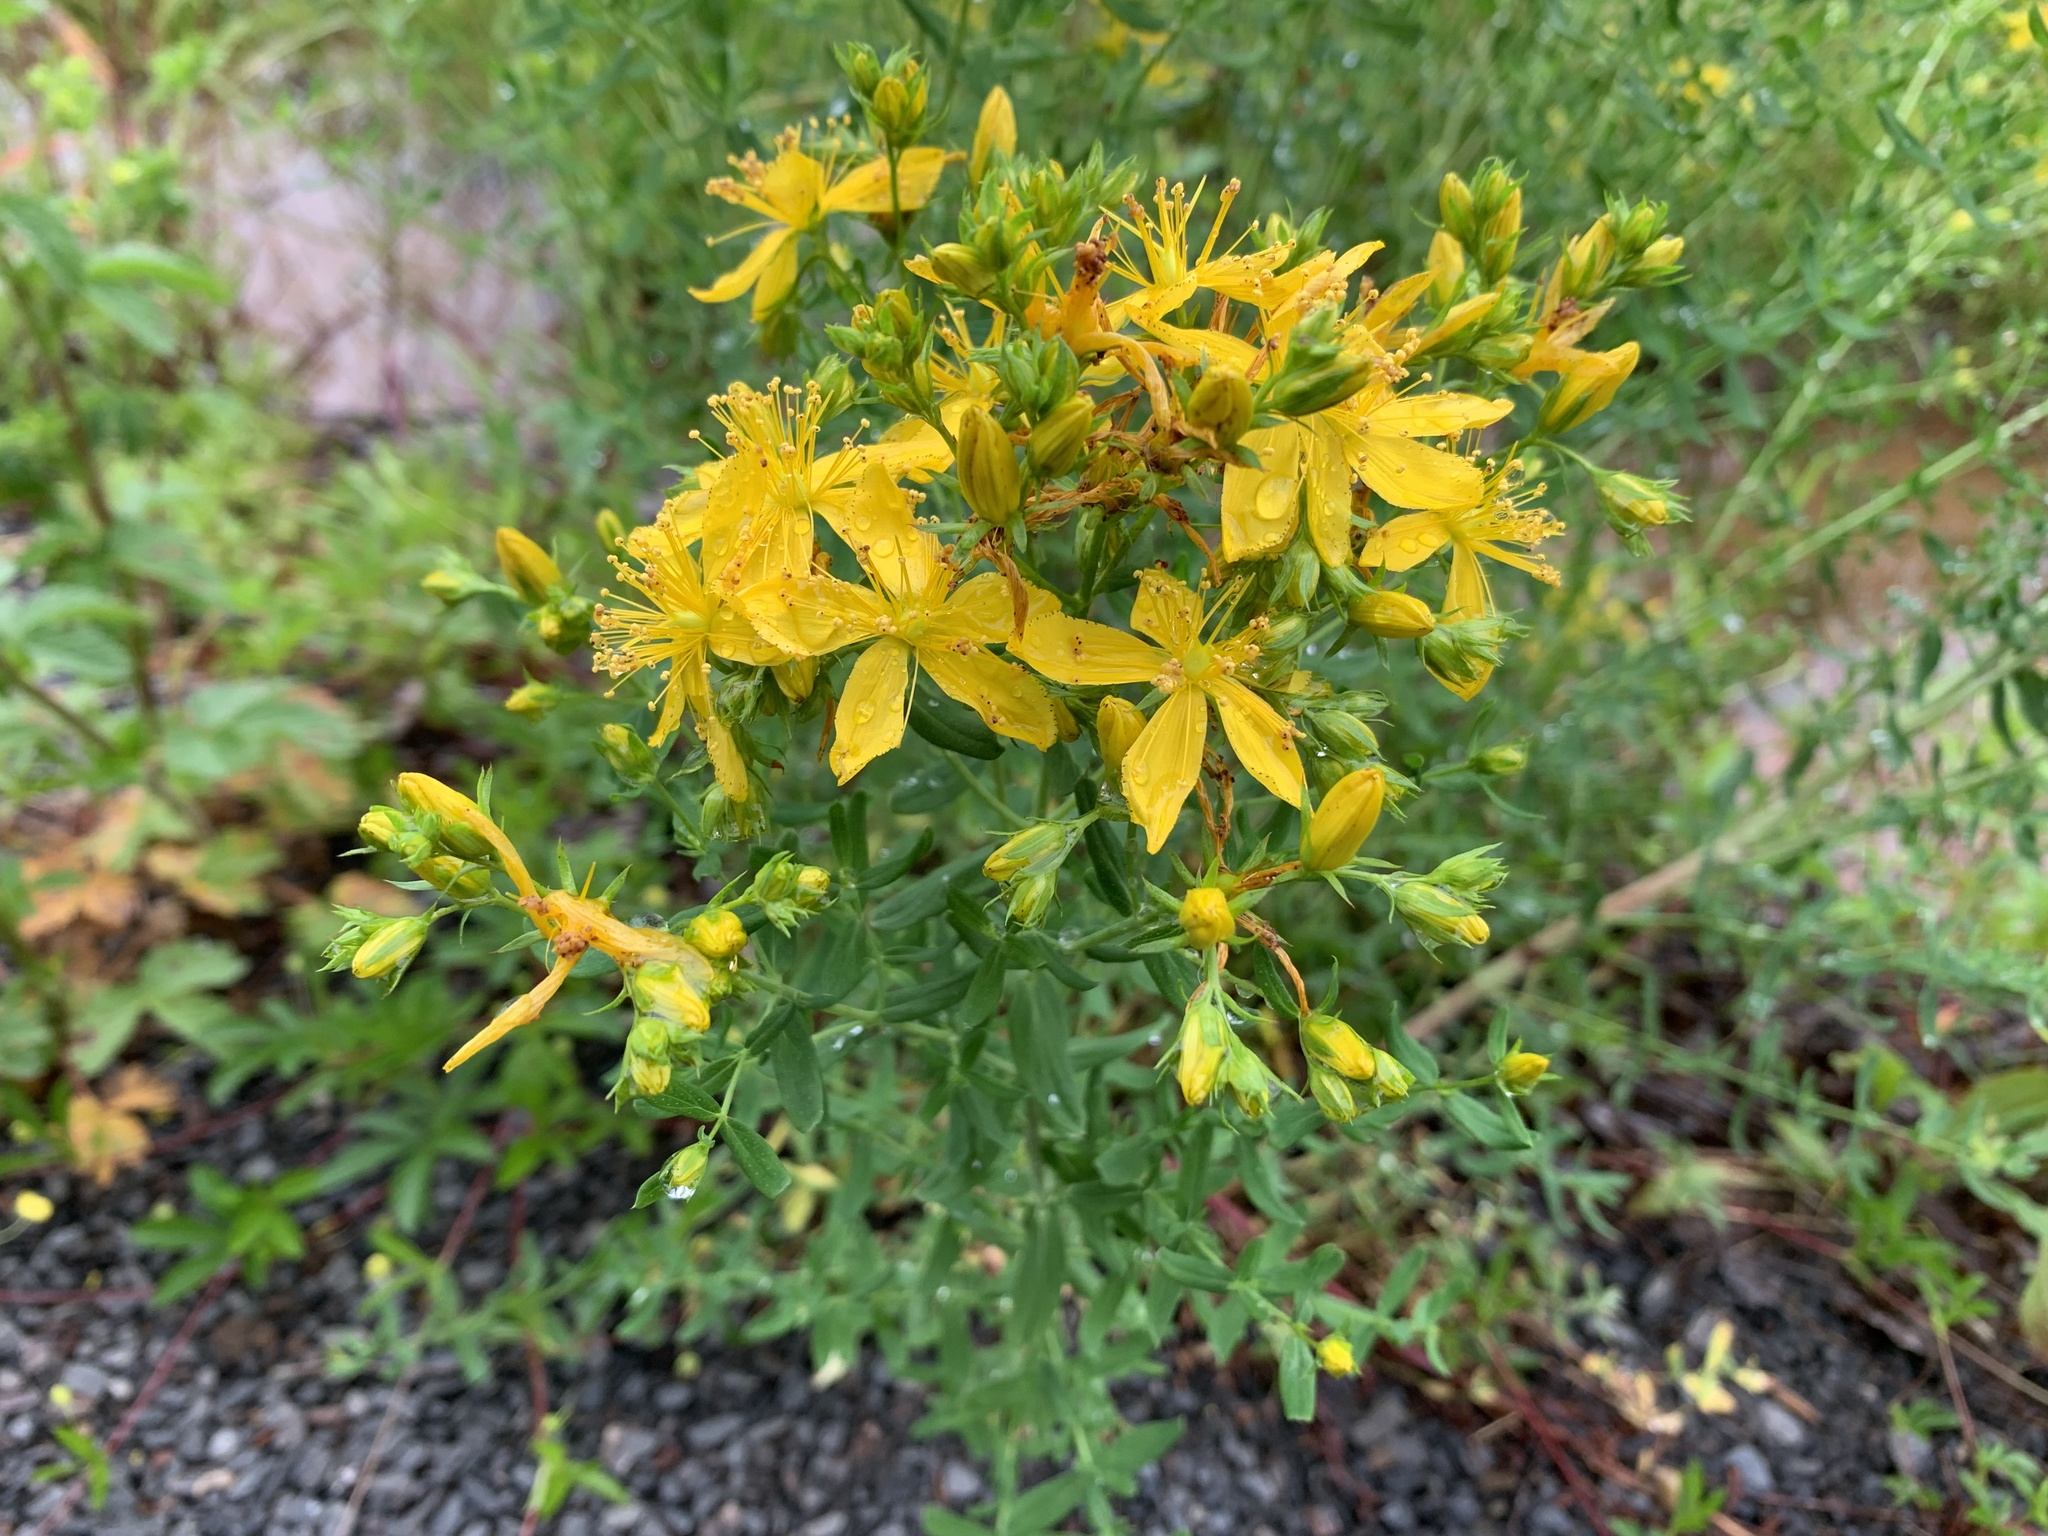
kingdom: Plantae
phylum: Tracheophyta
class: Magnoliopsida
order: Malpighiales
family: Hypericaceae
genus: Hypericum
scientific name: Hypericum perforatum
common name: Common st. johnswort
